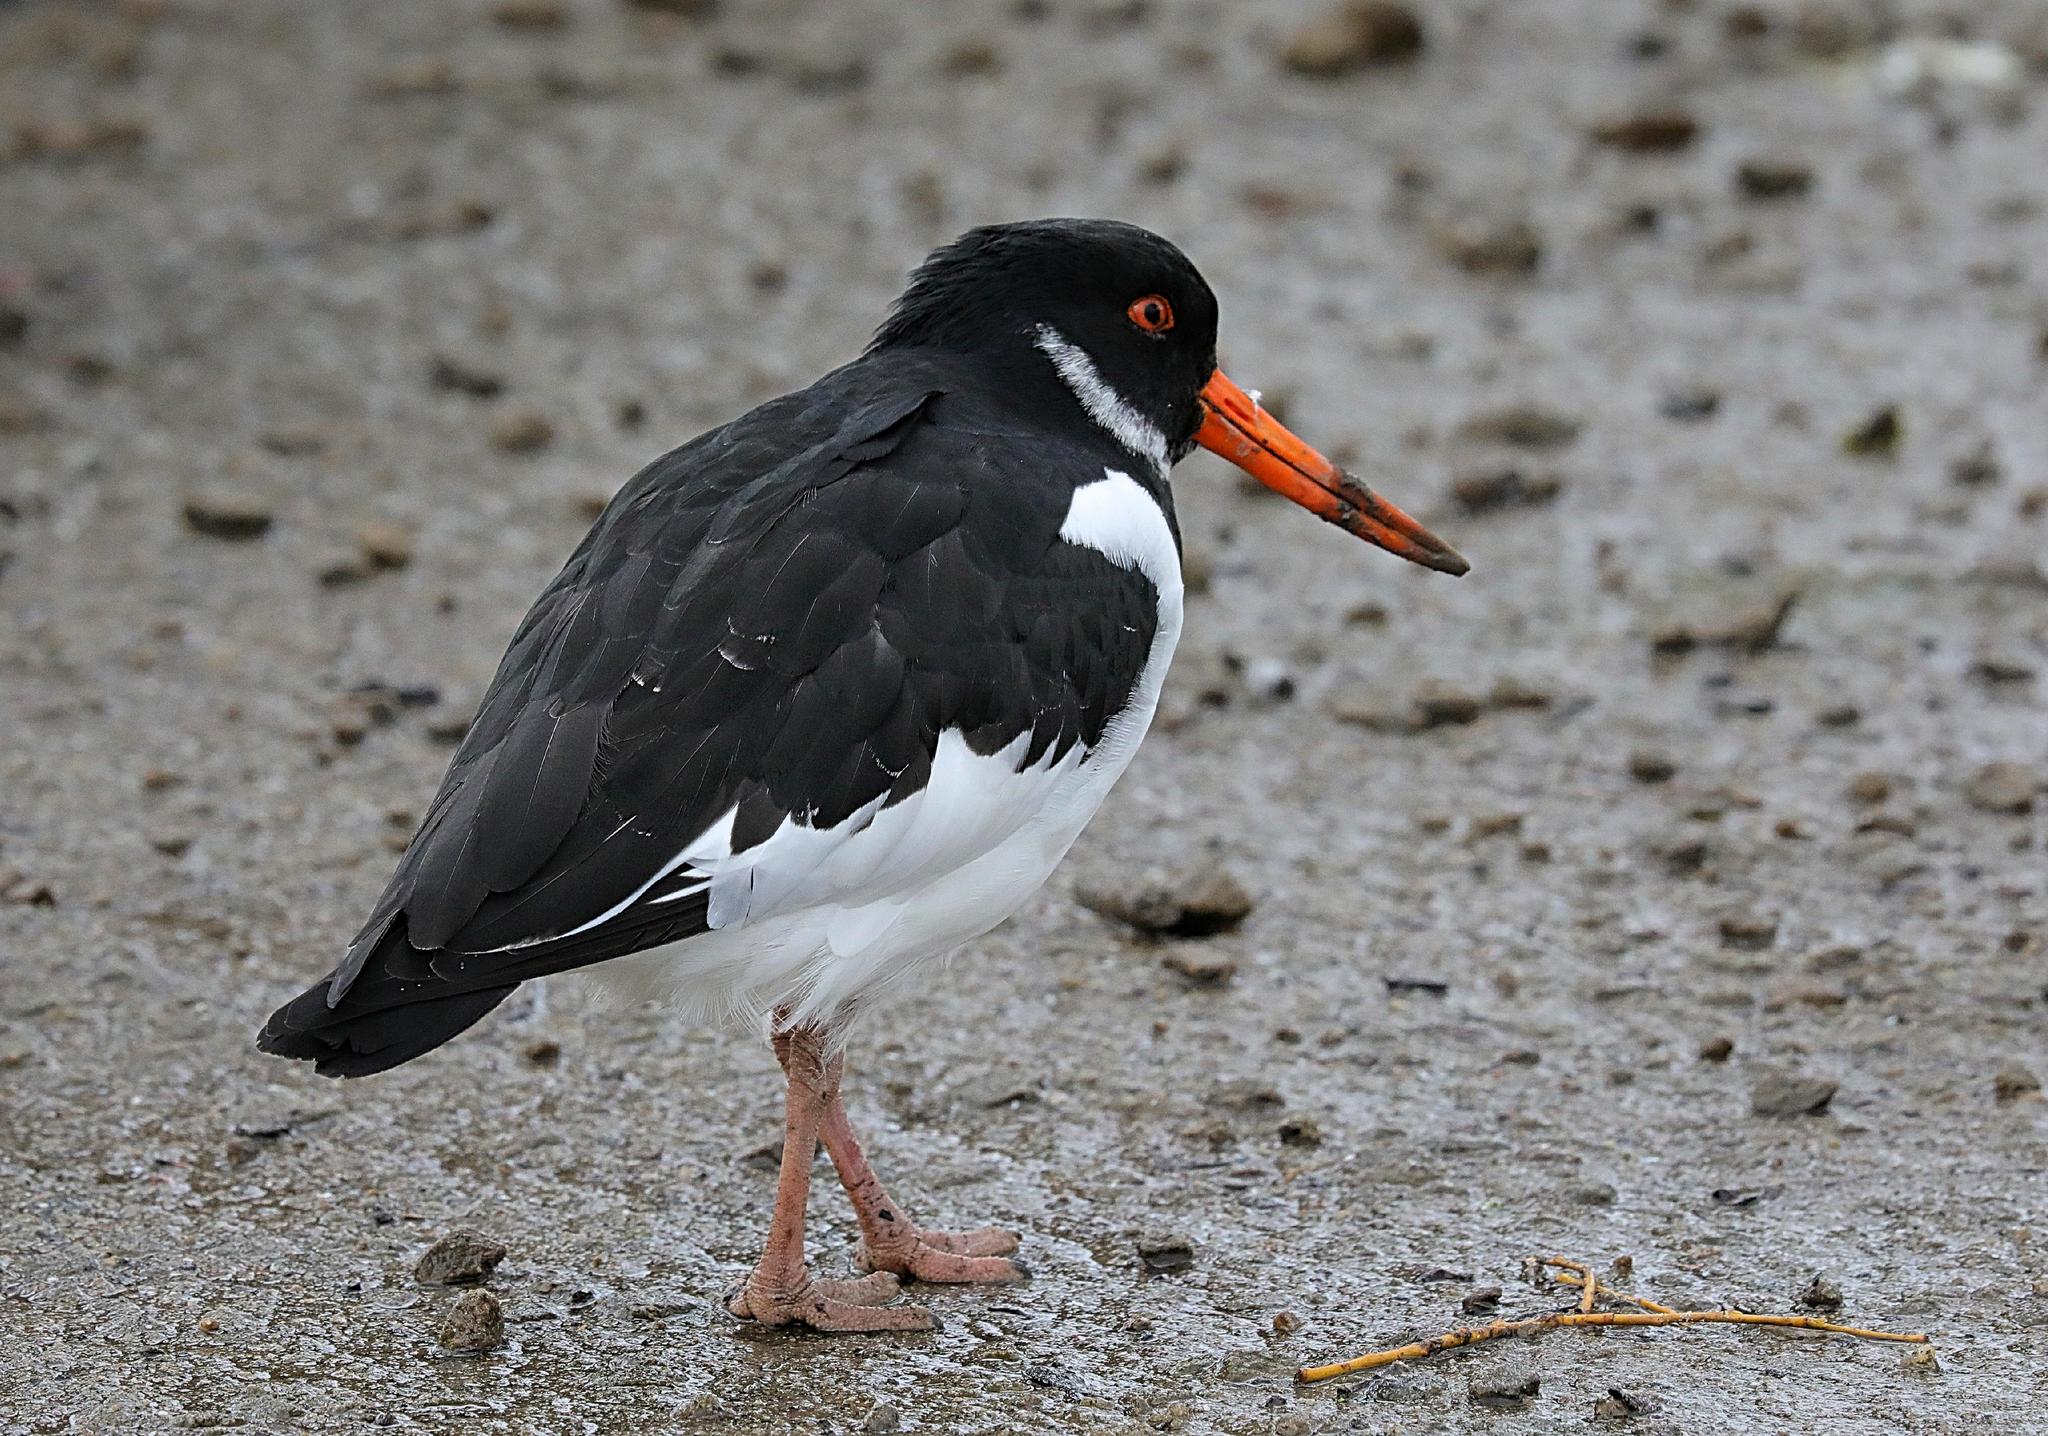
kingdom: Animalia
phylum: Chordata
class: Aves
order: Charadriiformes
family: Haematopodidae
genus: Haematopus
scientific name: Haematopus ostralegus
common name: Eurasian oystercatcher
